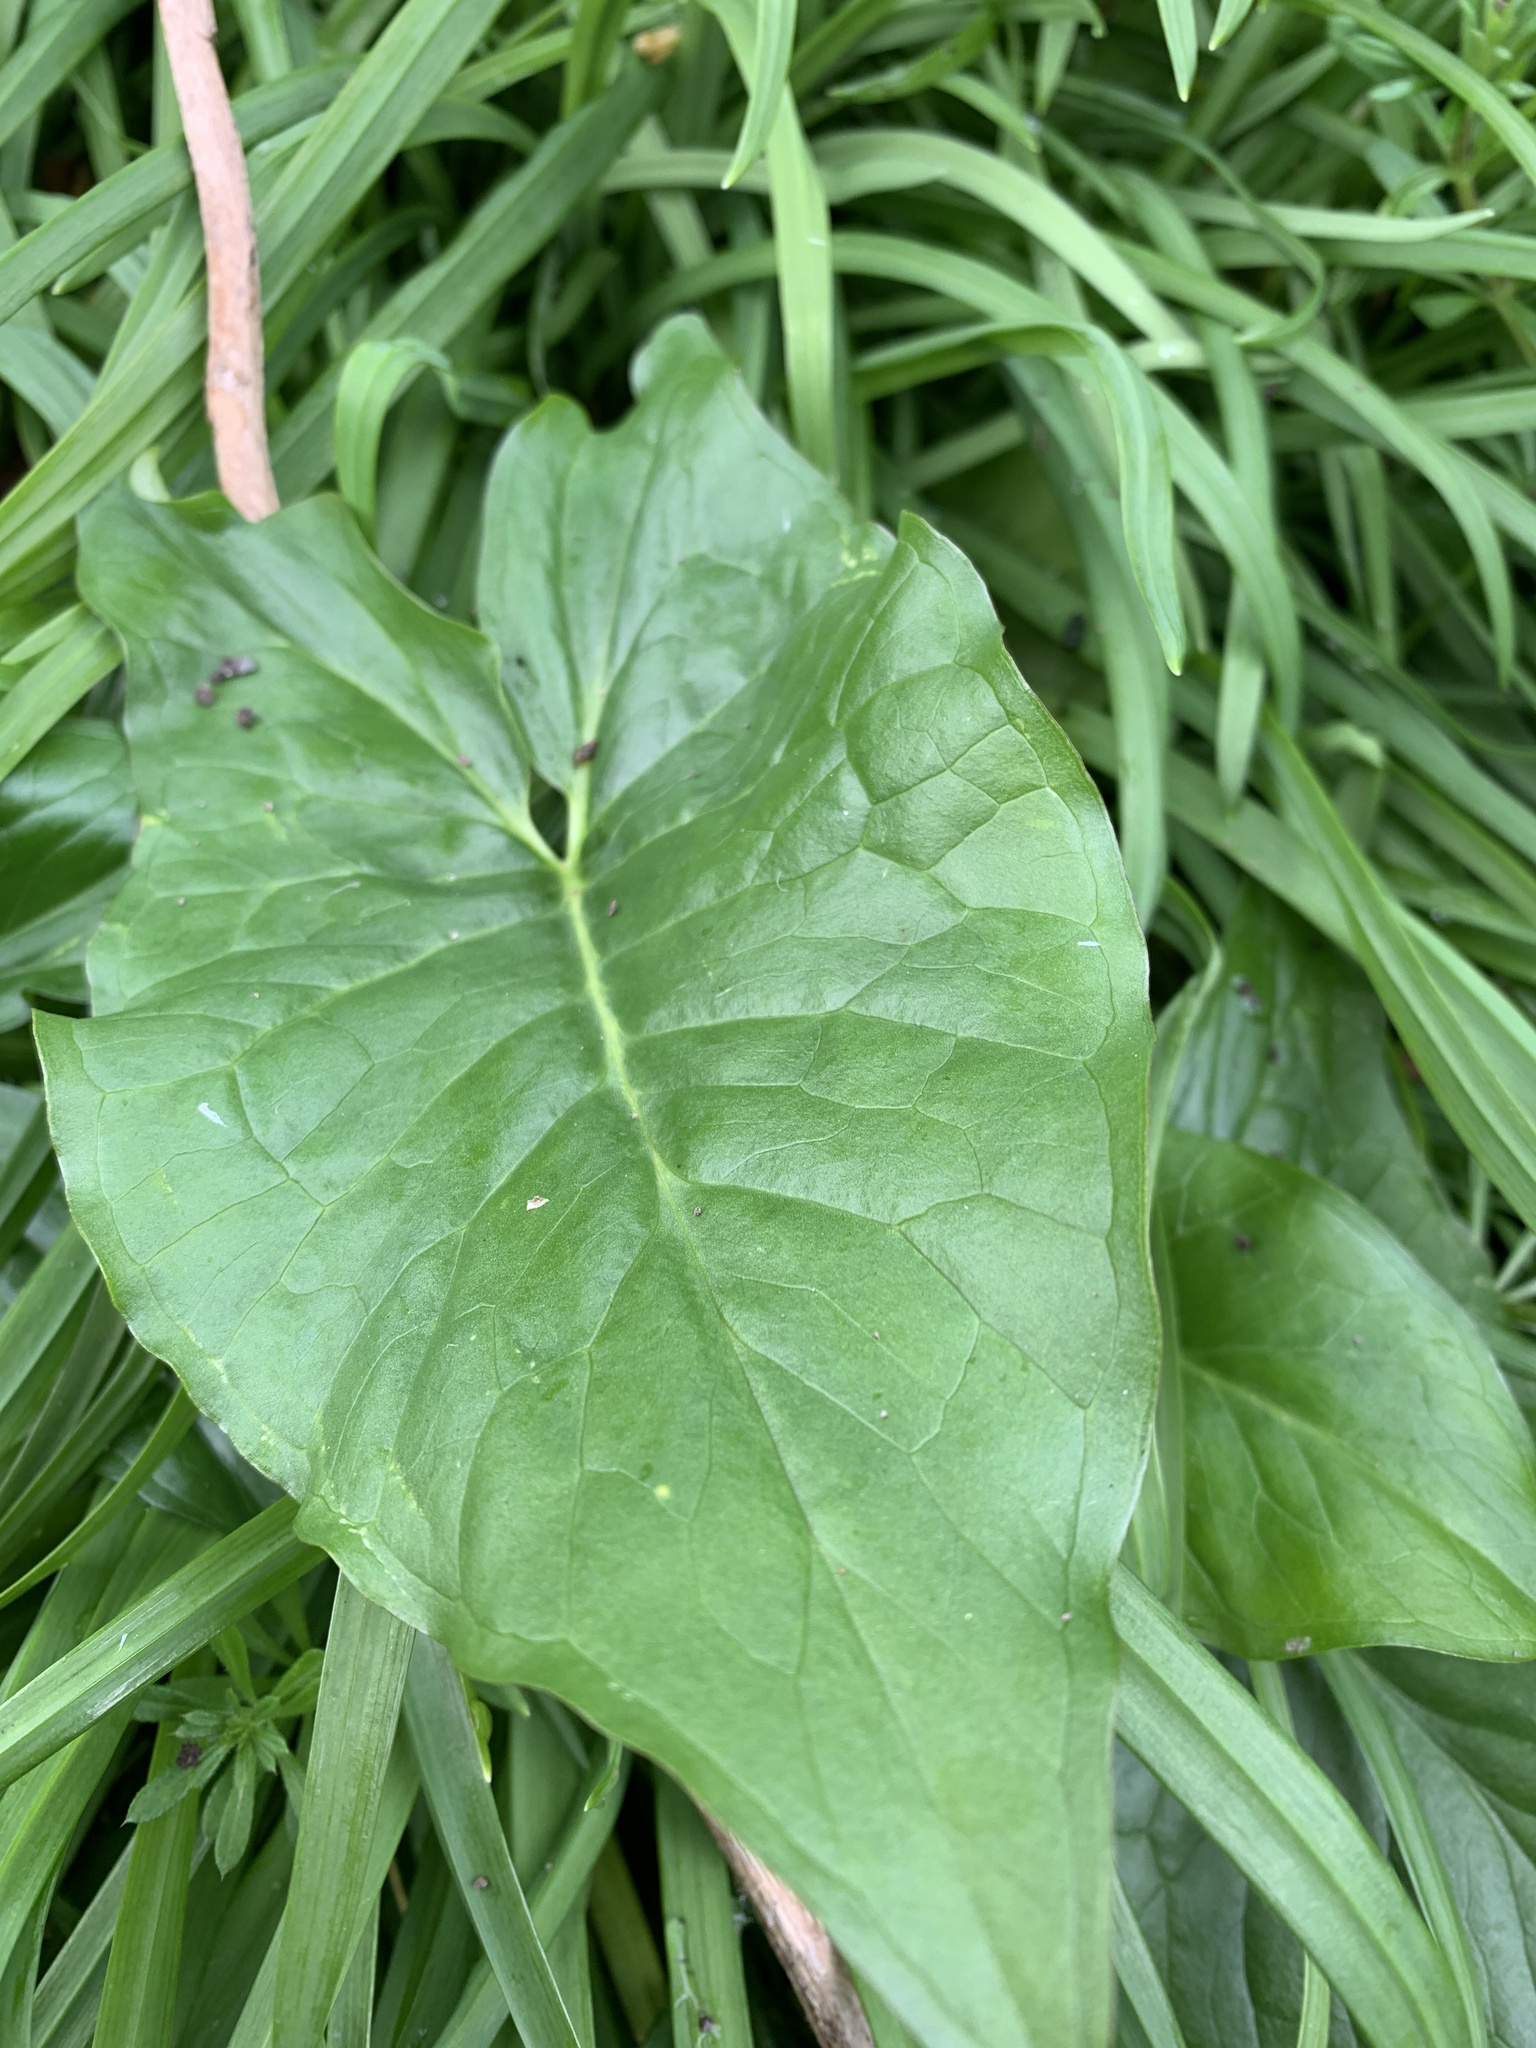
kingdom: Plantae
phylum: Tracheophyta
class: Liliopsida
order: Alismatales
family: Araceae
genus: Arum
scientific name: Arum maculatum
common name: Lords-and-ladies
